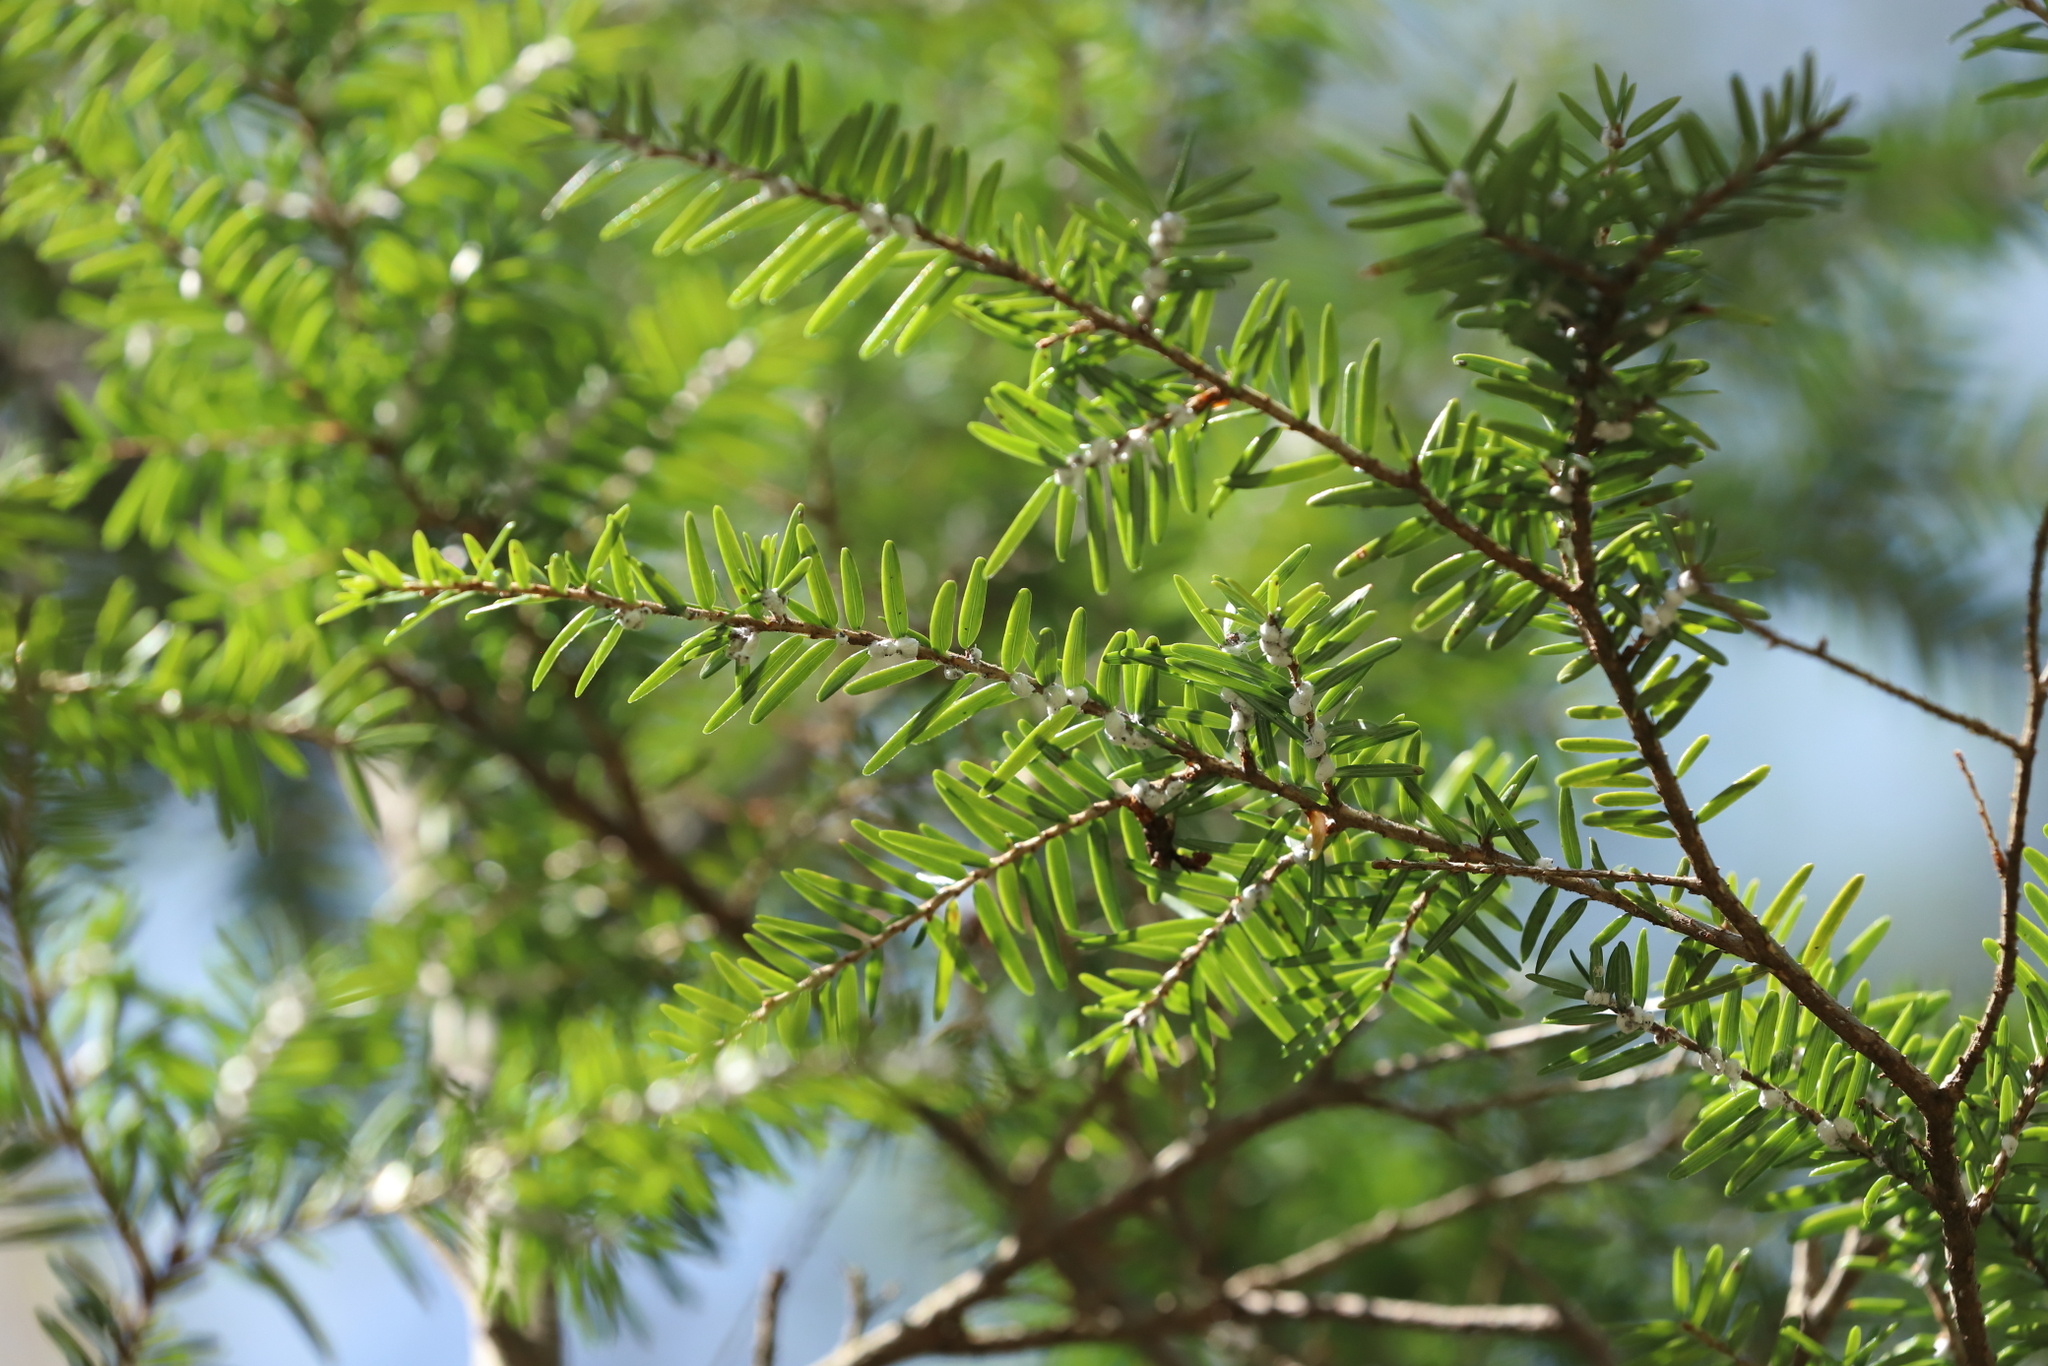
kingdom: Animalia
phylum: Arthropoda
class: Insecta
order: Hemiptera
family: Adelgidae
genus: Adelges
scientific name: Adelges tsugae
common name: Hemlock woolly adelgid
